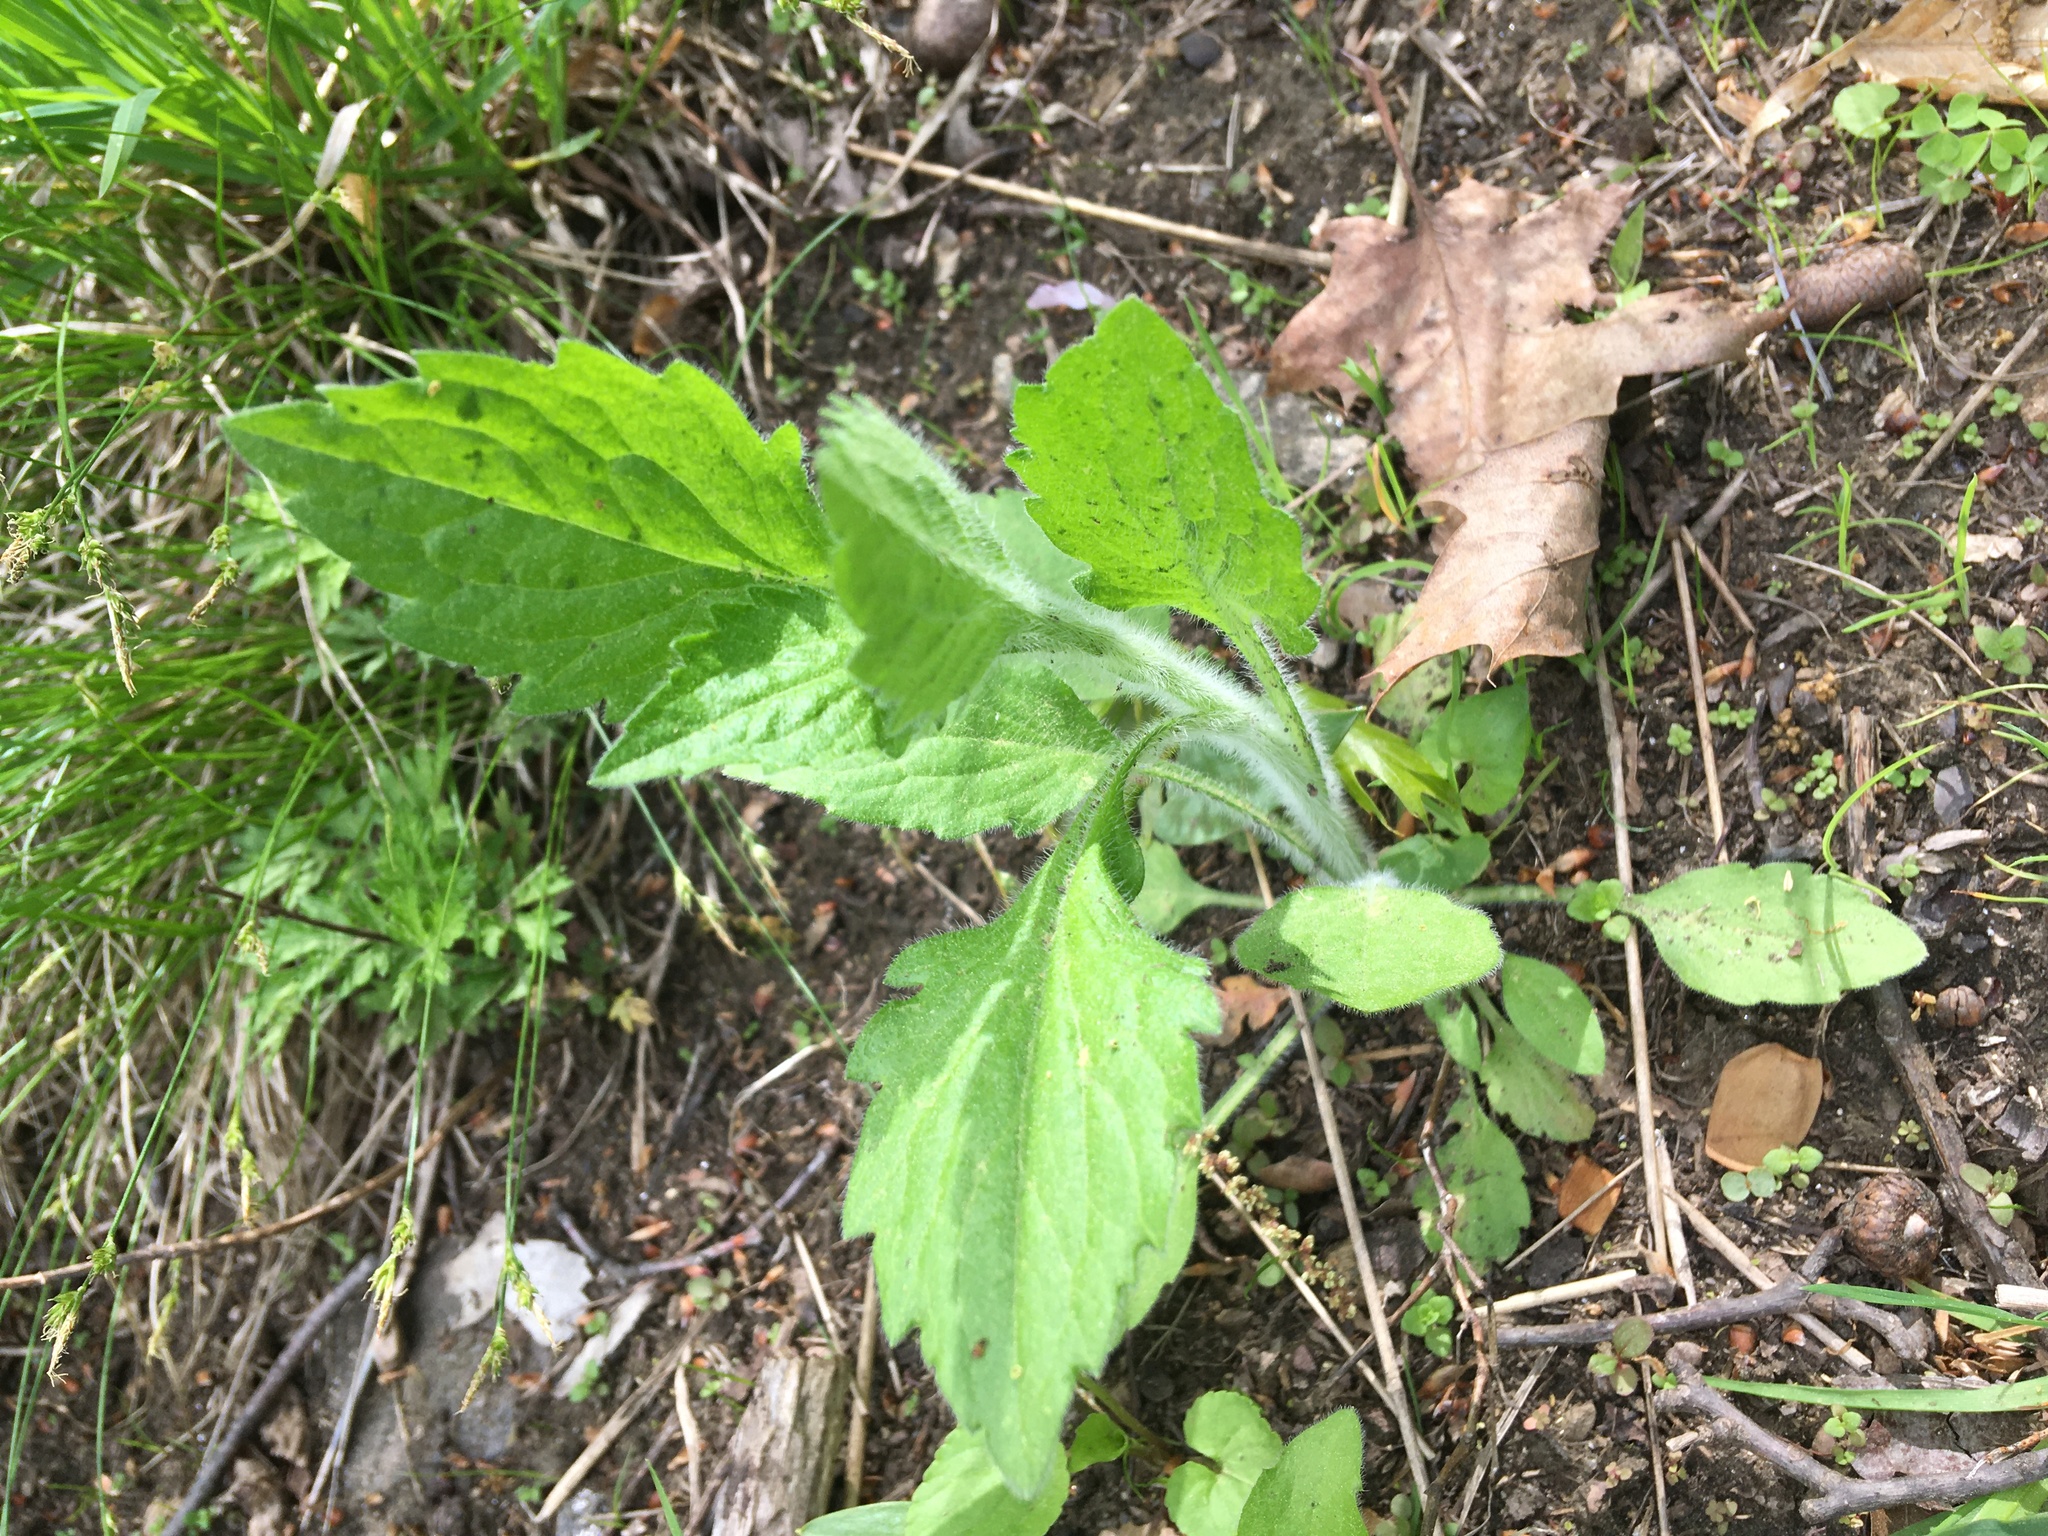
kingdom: Plantae
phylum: Tracheophyta
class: Magnoliopsida
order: Asterales
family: Asteraceae
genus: Erigeron
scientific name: Erigeron annuus
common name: Tall fleabane
